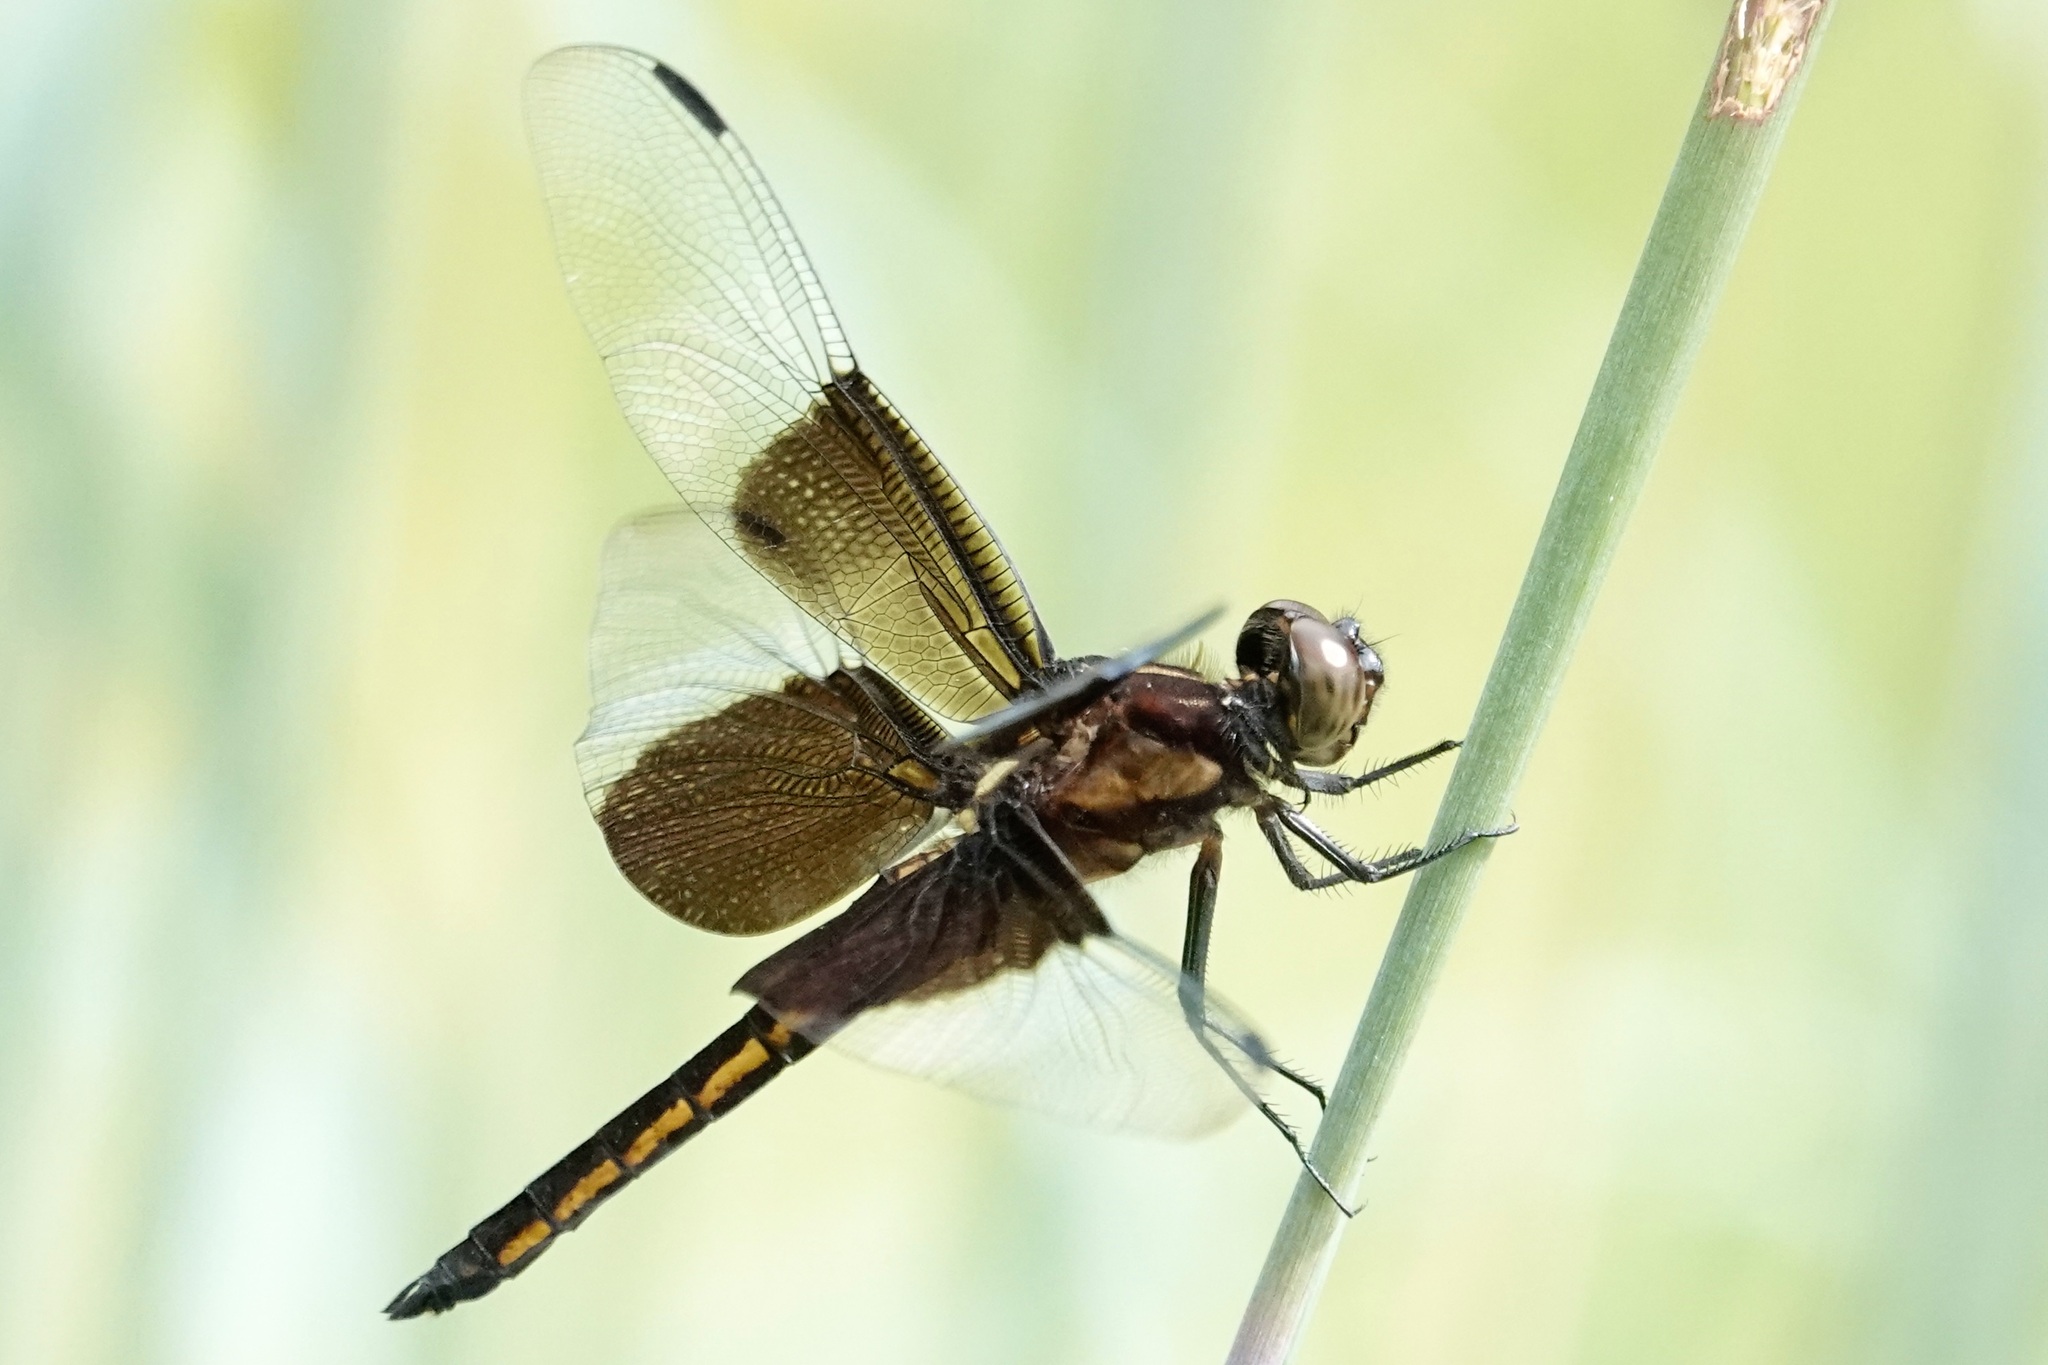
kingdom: Animalia
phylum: Arthropoda
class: Insecta
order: Odonata
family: Libellulidae
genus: Libellula
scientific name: Libellula luctuosa
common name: Widow skimmer
